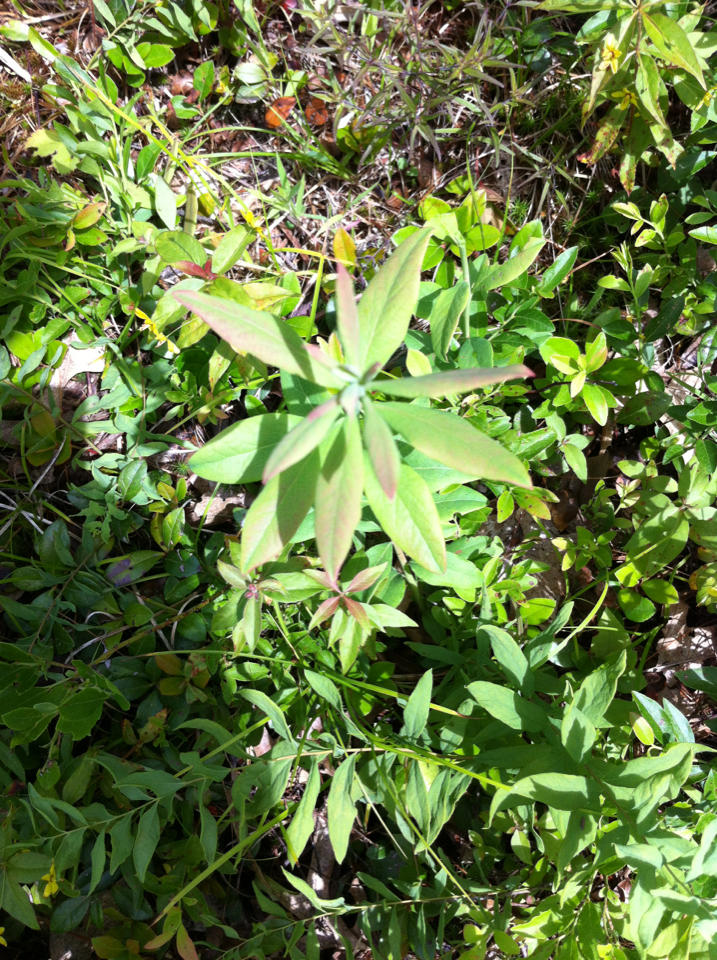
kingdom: Plantae
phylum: Tracheophyta
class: Magnoliopsida
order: Santalales
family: Comandraceae
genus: Comandra
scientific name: Comandra umbellata
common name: Bastard toadflax
